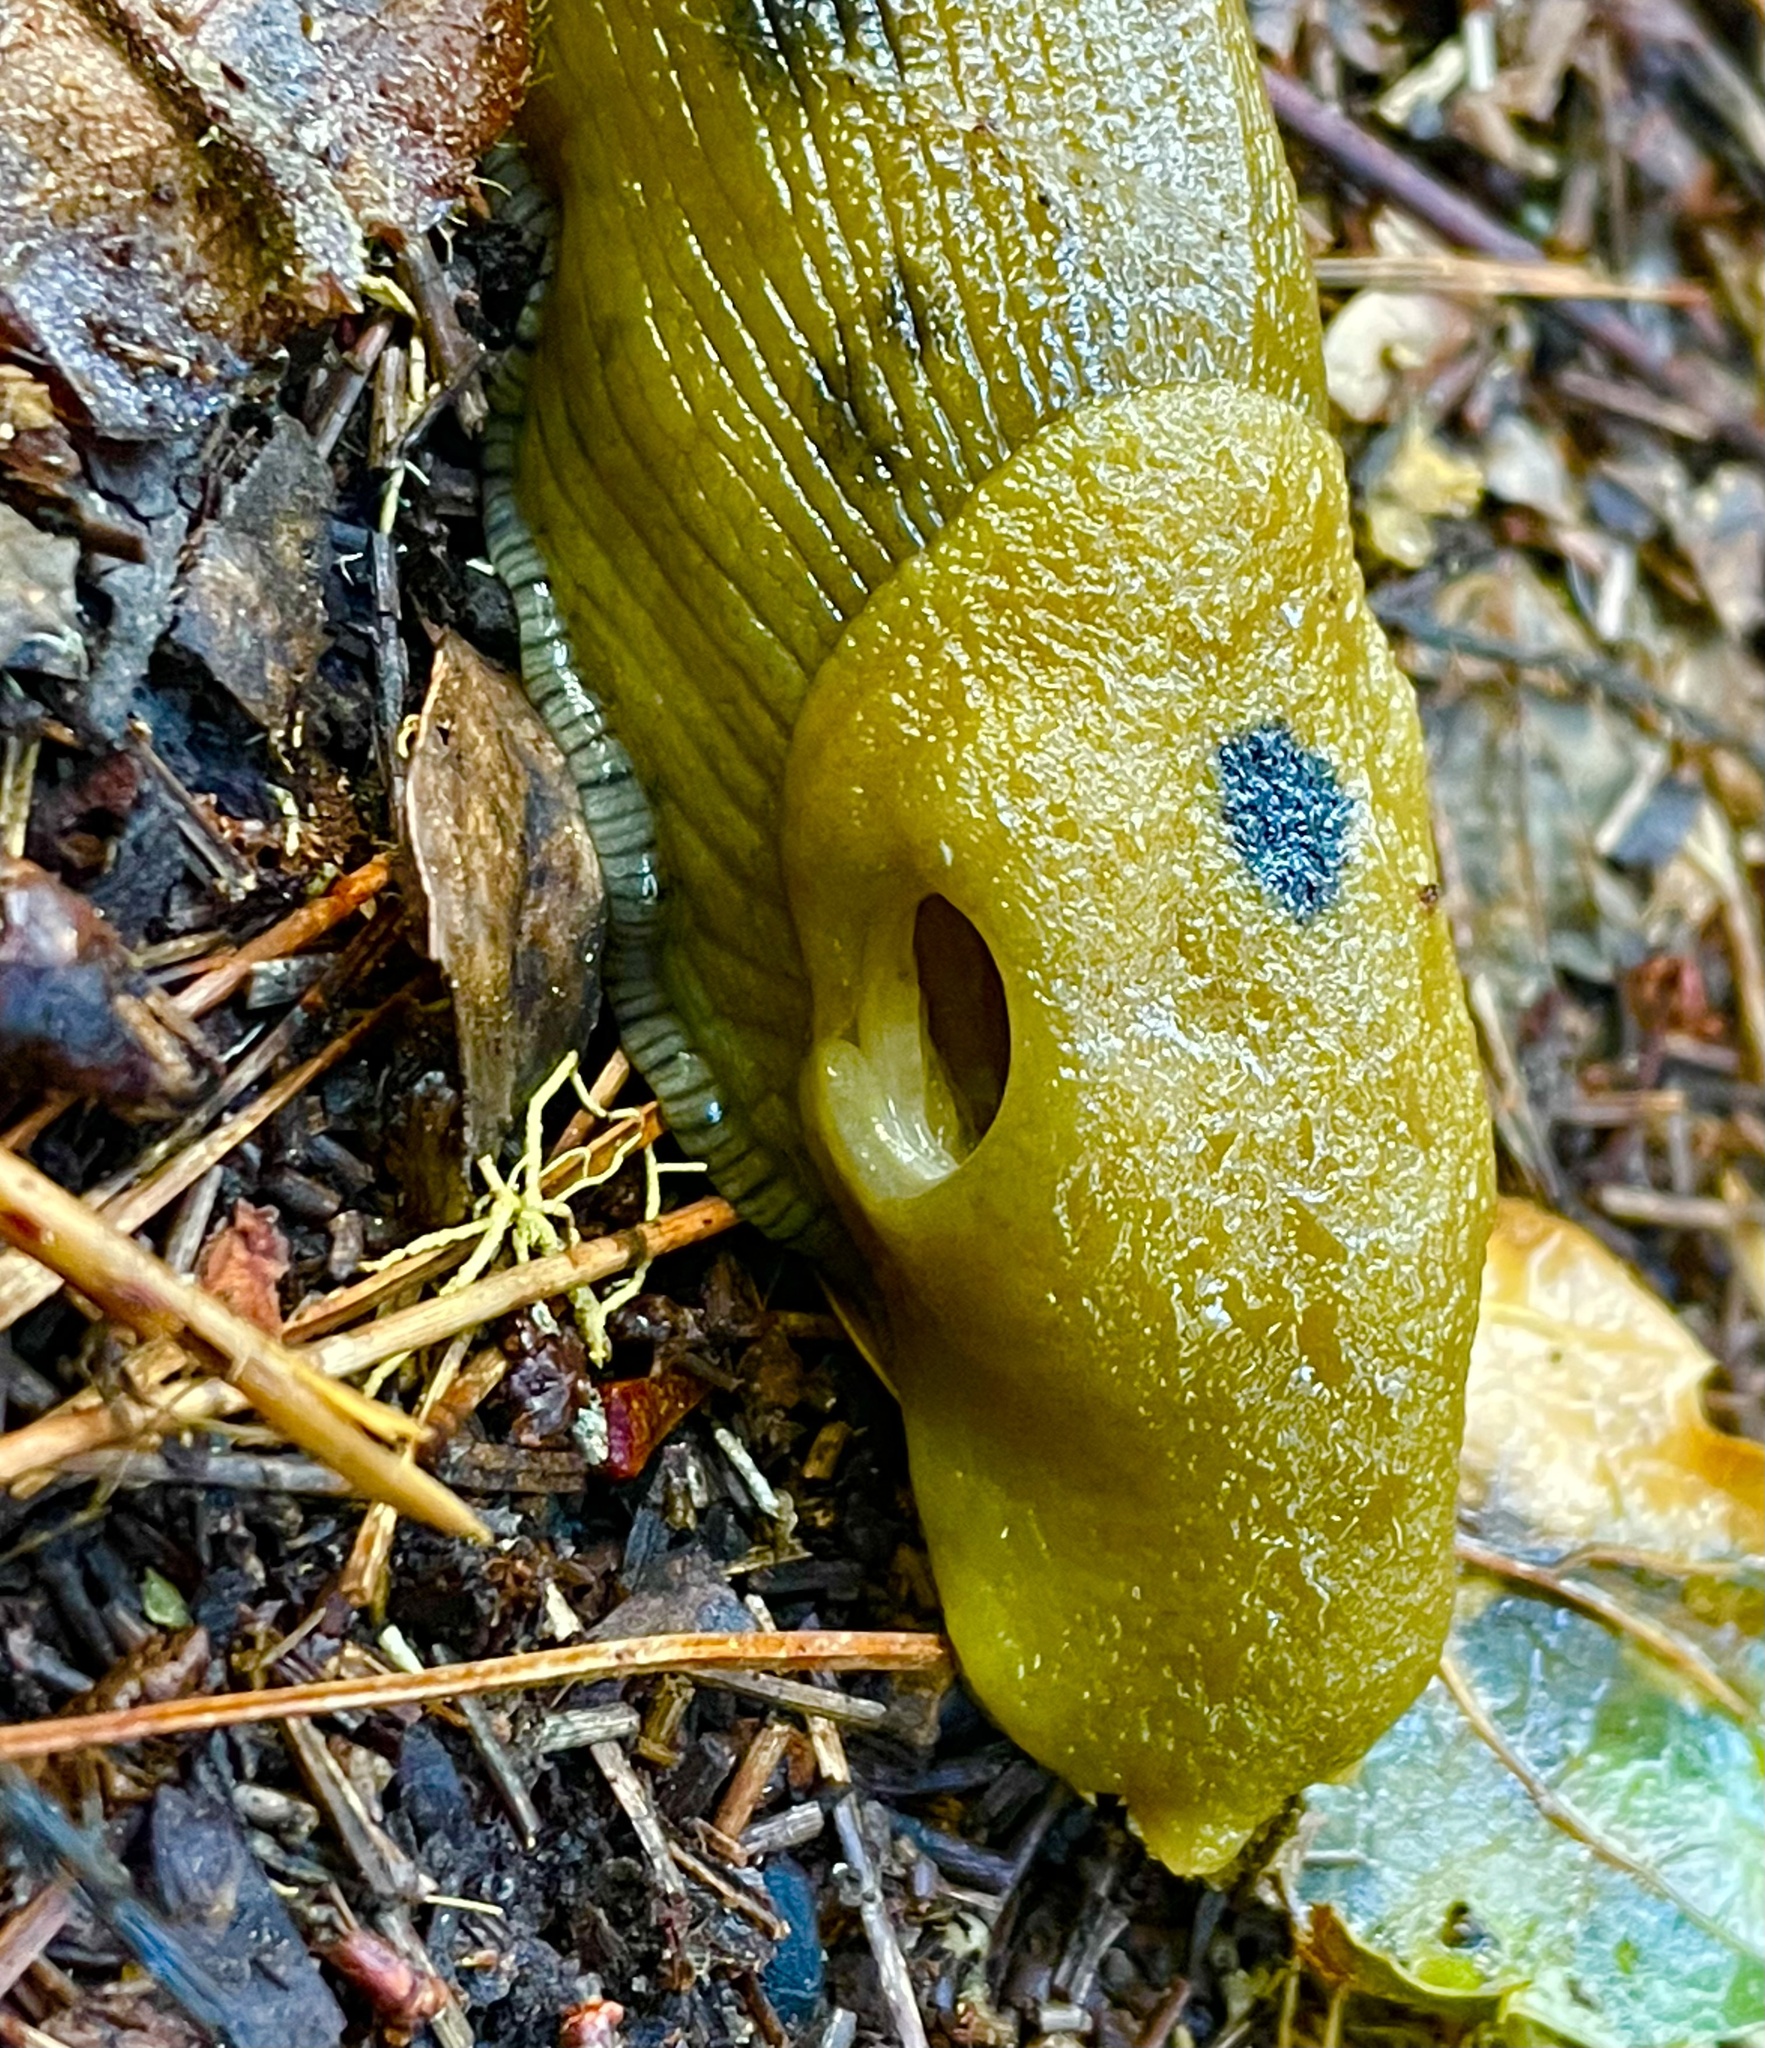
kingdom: Animalia
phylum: Mollusca
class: Gastropoda
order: Stylommatophora
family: Ariolimacidae
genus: Ariolimax
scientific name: Ariolimax buttoni
